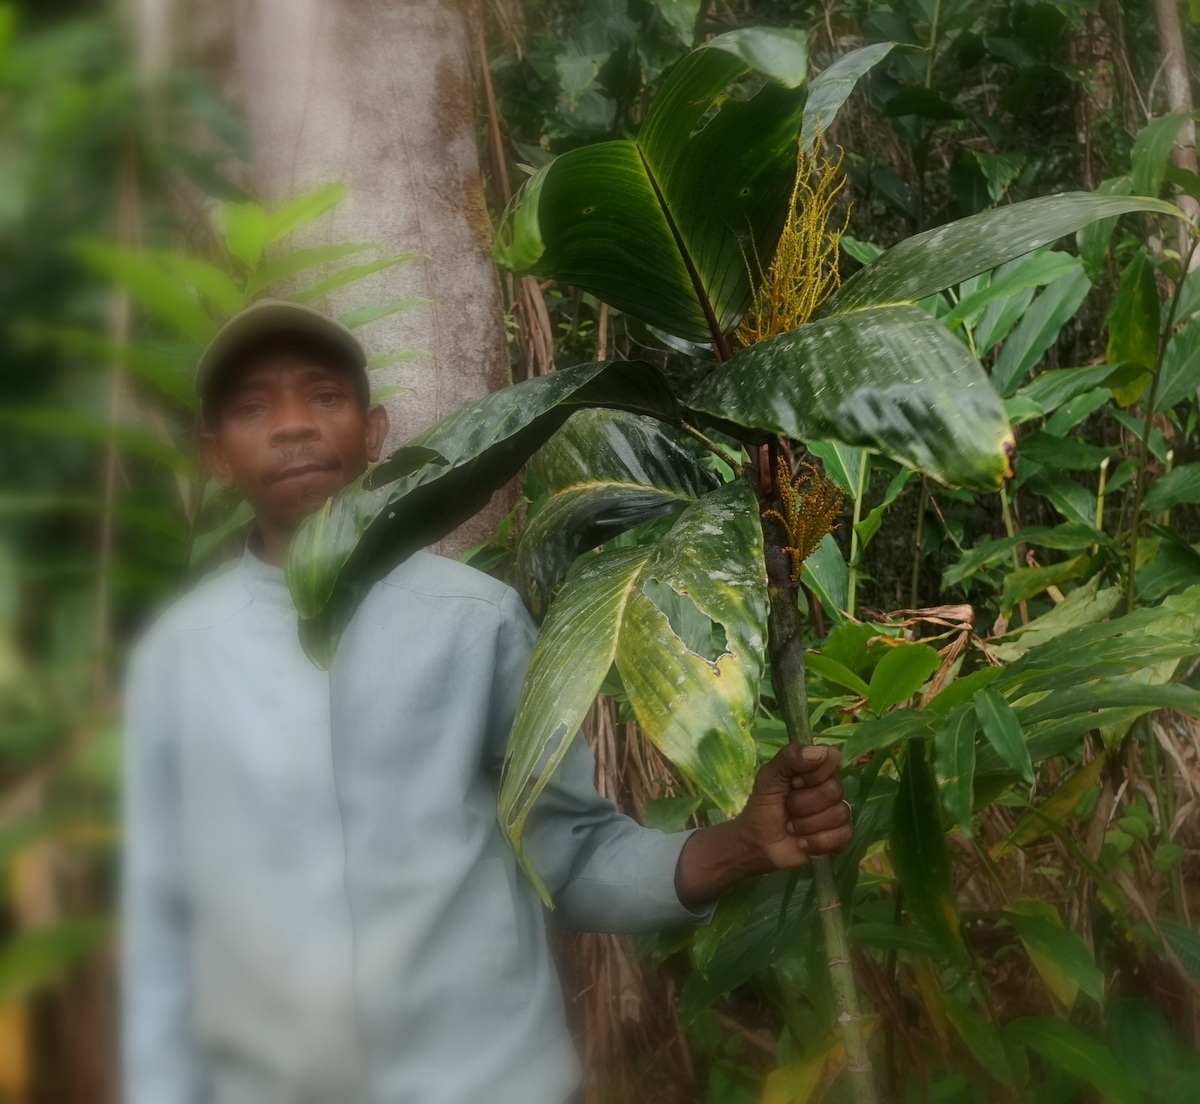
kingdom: Plantae
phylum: Tracheophyta
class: Liliopsida
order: Arecales
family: Arecaceae
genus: Dypsis
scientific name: Dypsis metallica
